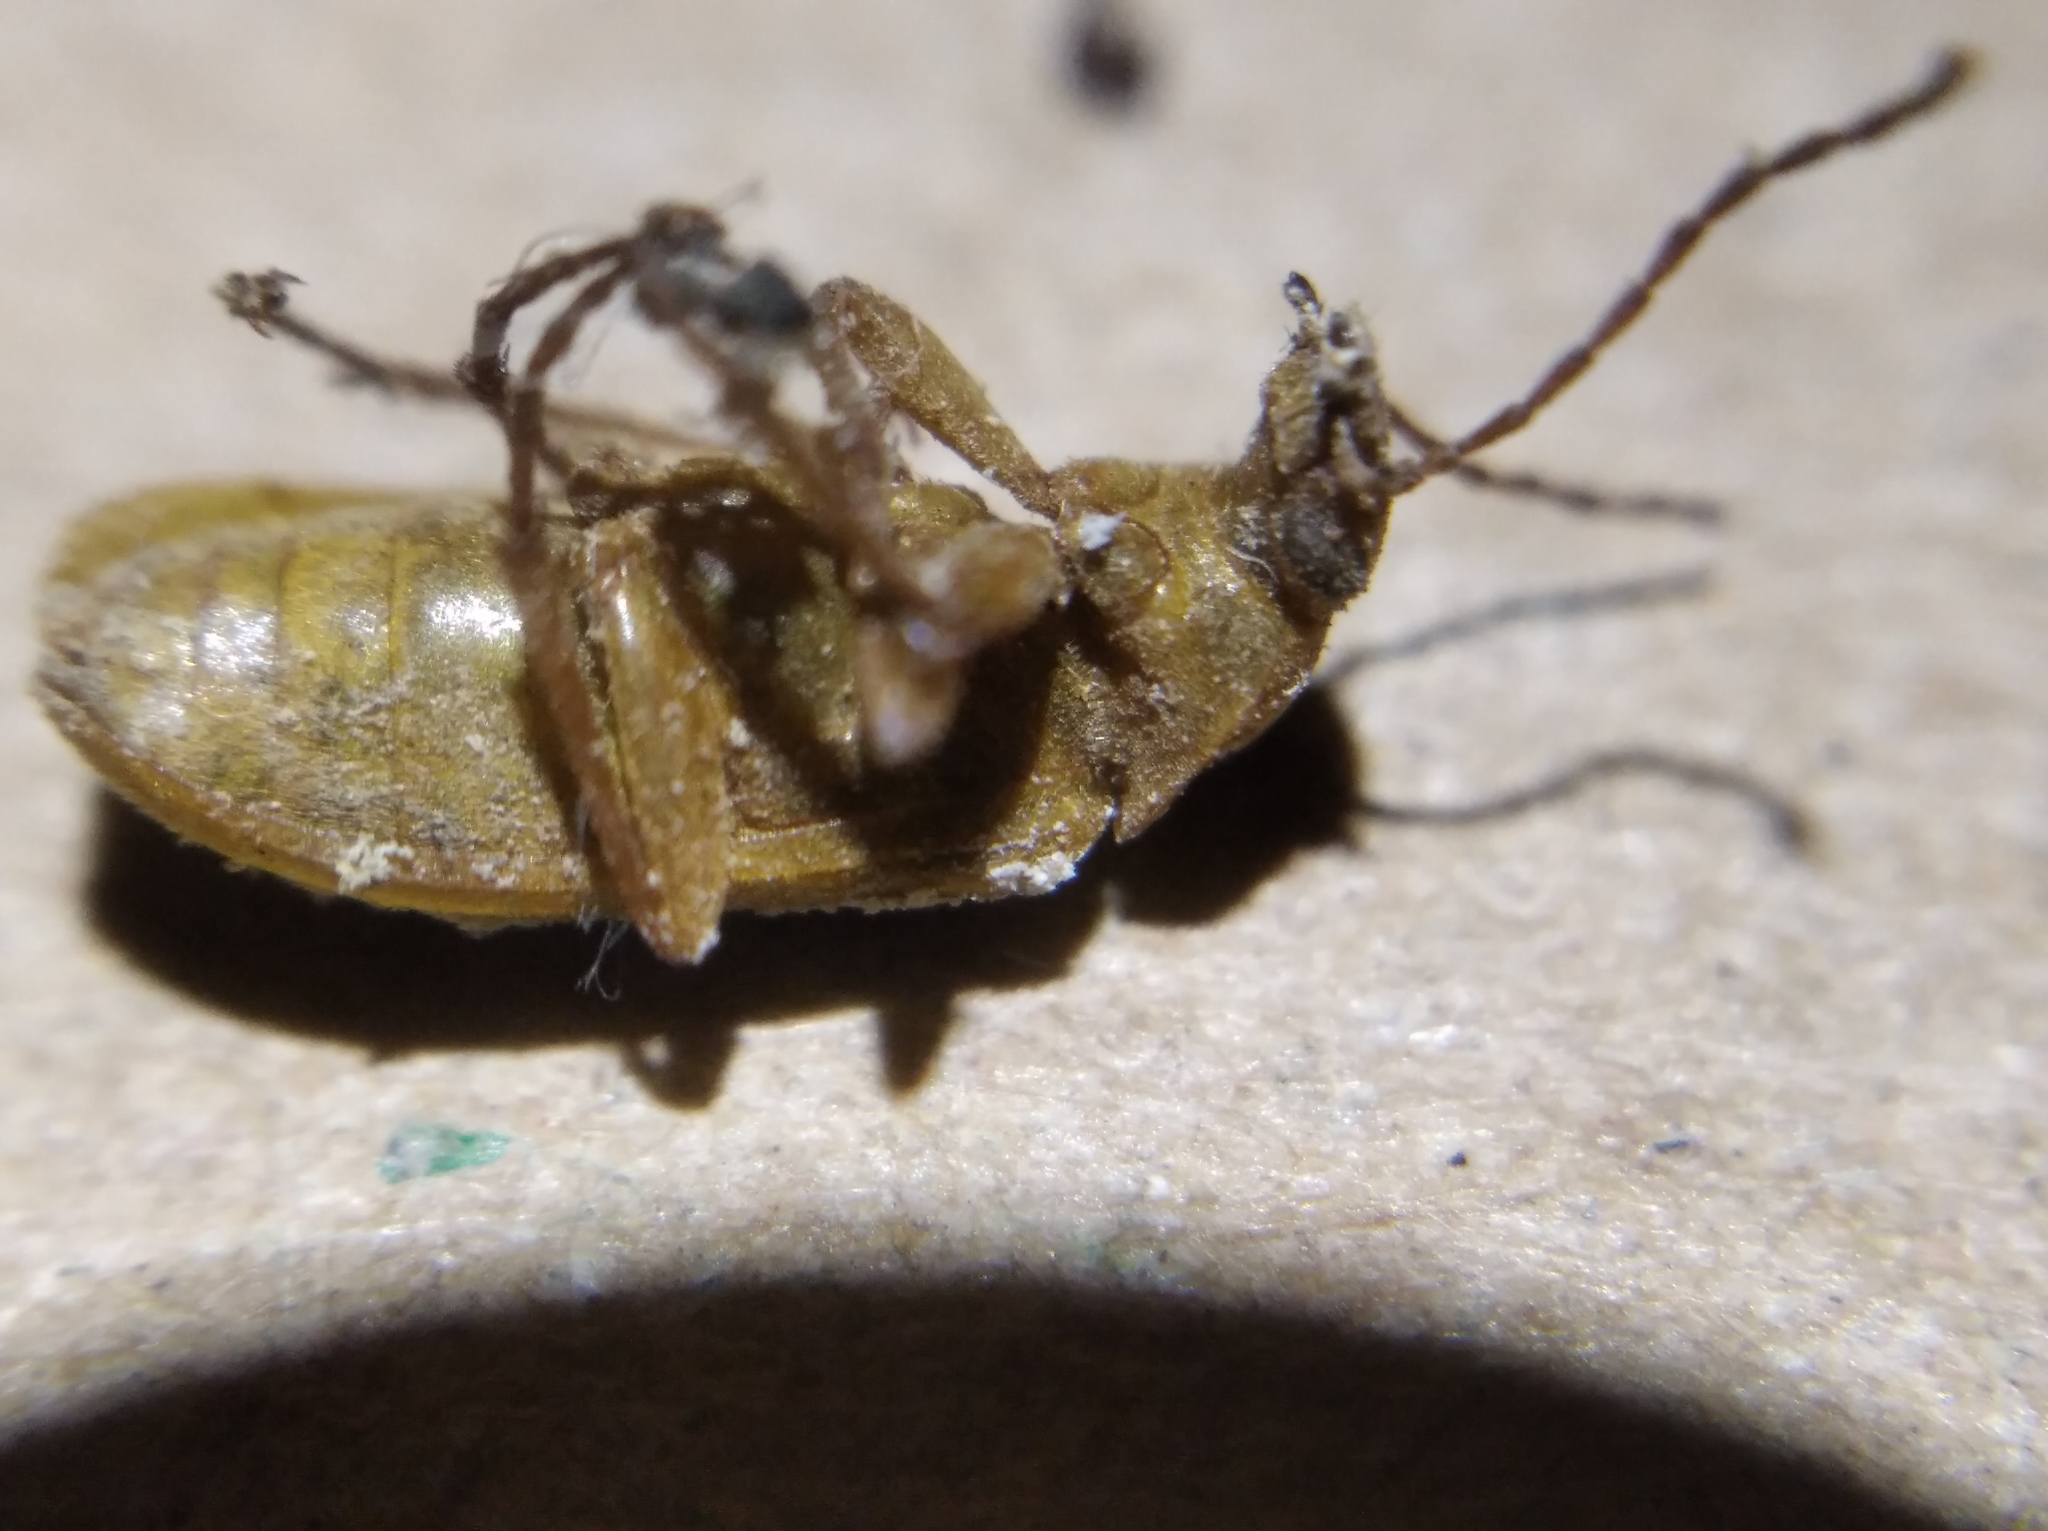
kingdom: Animalia
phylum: Arthropoda
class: Insecta
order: Coleoptera
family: Tenebrionidae
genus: Cteniopus
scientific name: Cteniopus sulphureus
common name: Sulphur beetle
